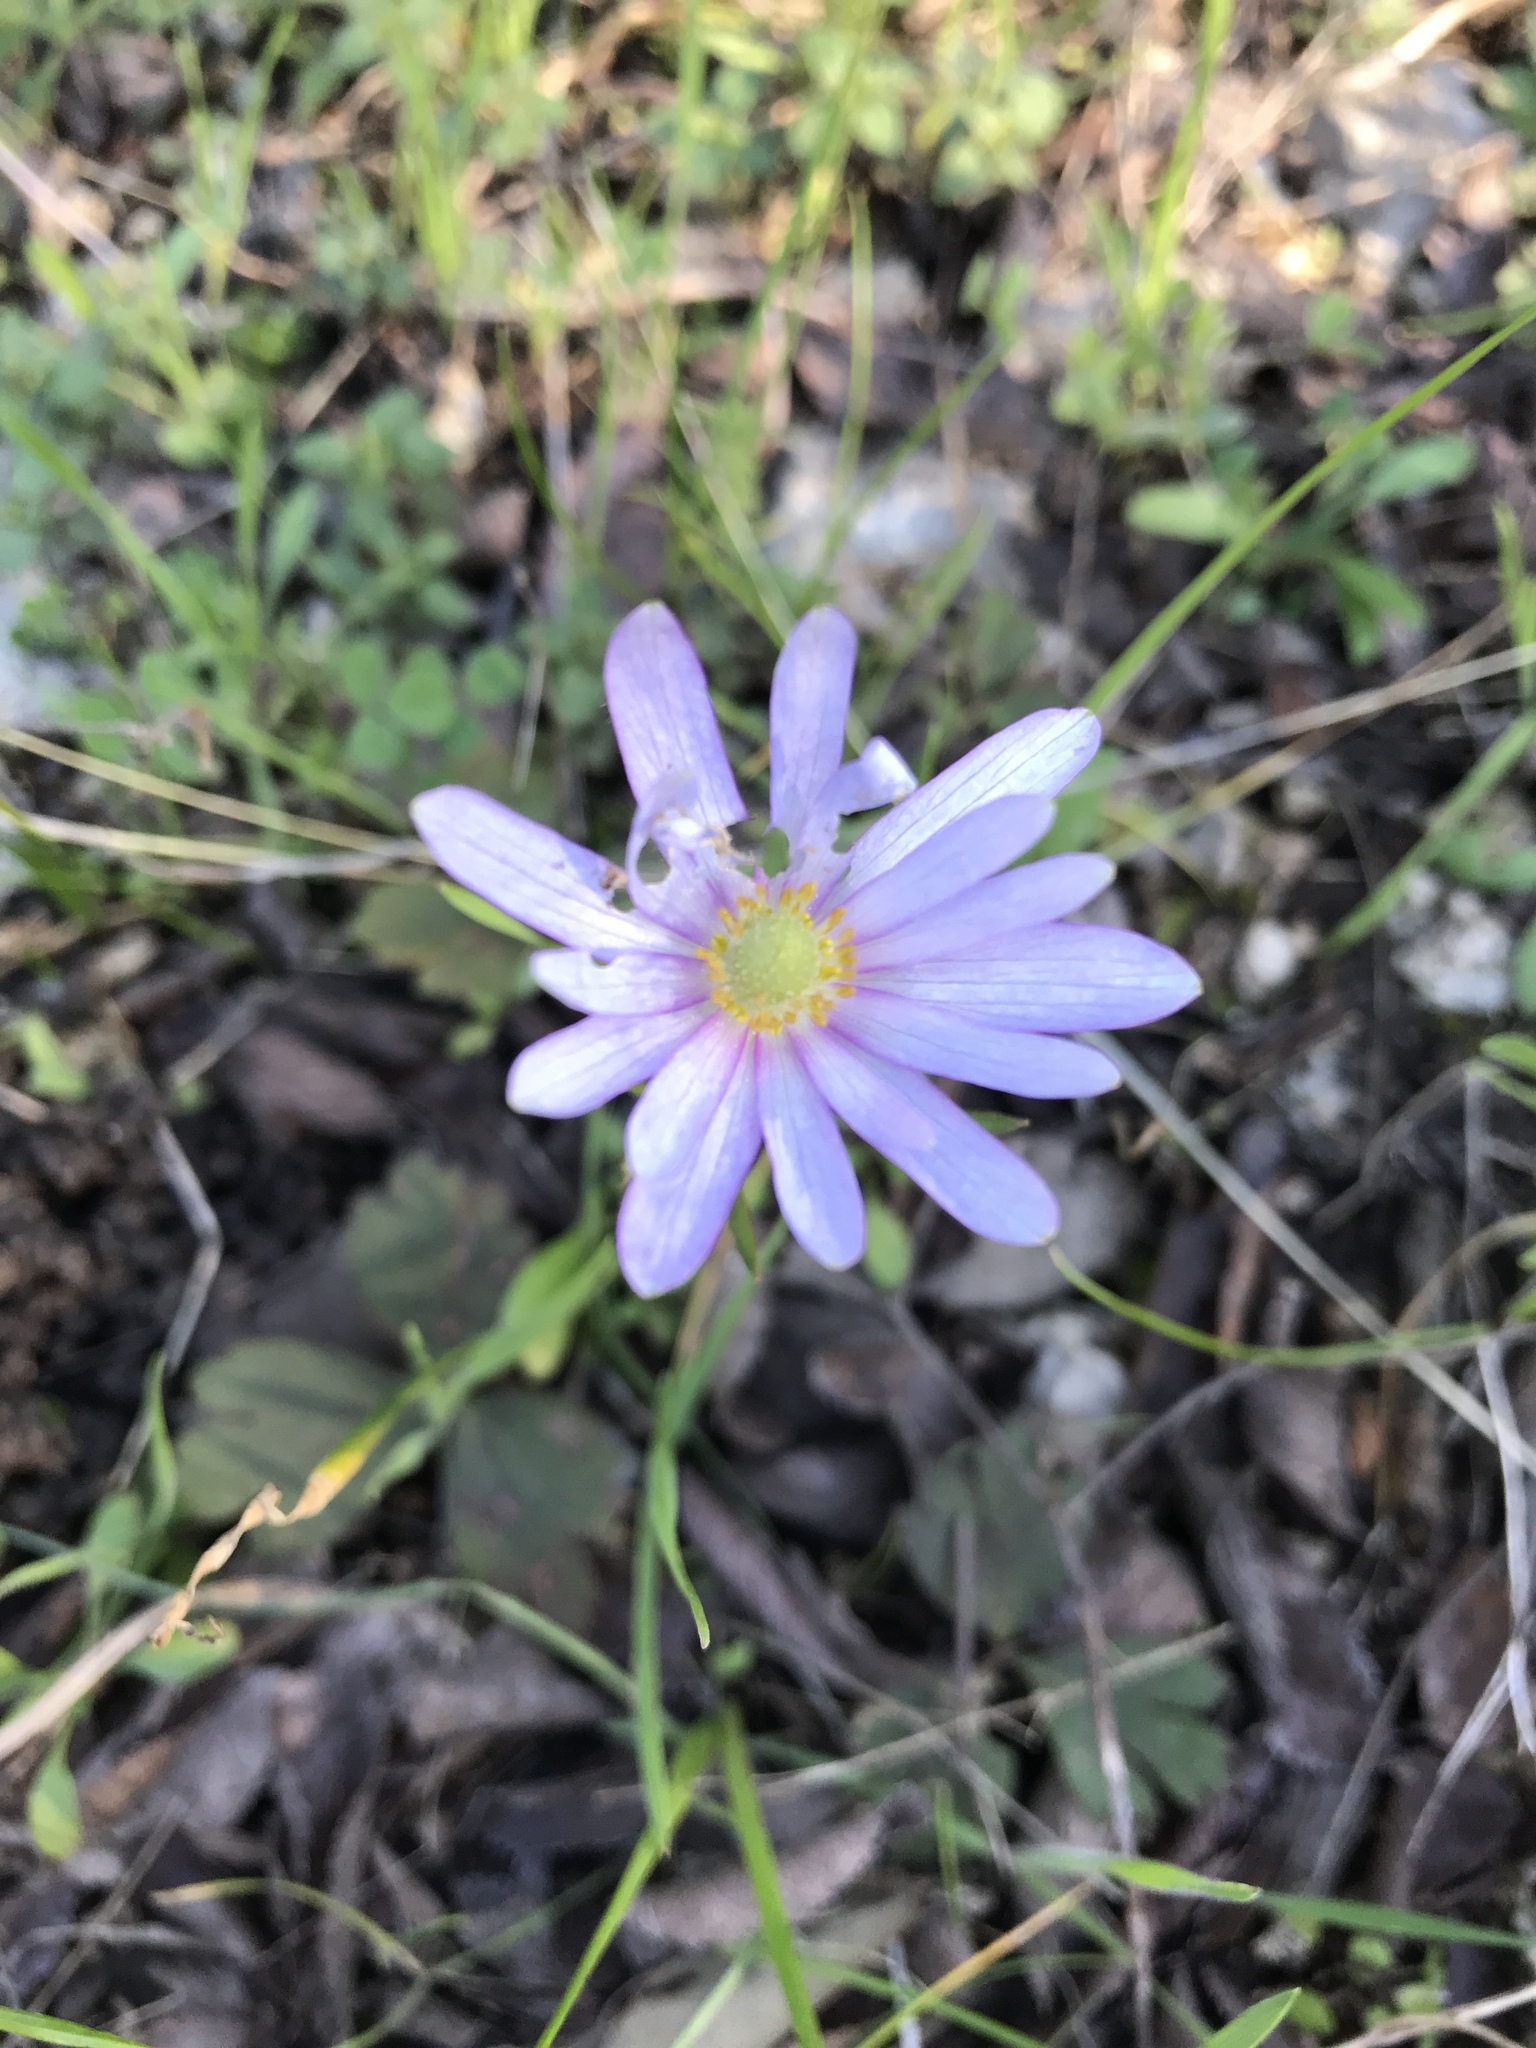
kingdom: Plantae
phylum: Tracheophyta
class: Magnoliopsida
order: Ranunculales
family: Ranunculaceae
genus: Anemone
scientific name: Anemone berlandieri
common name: Ten-petal anemone
